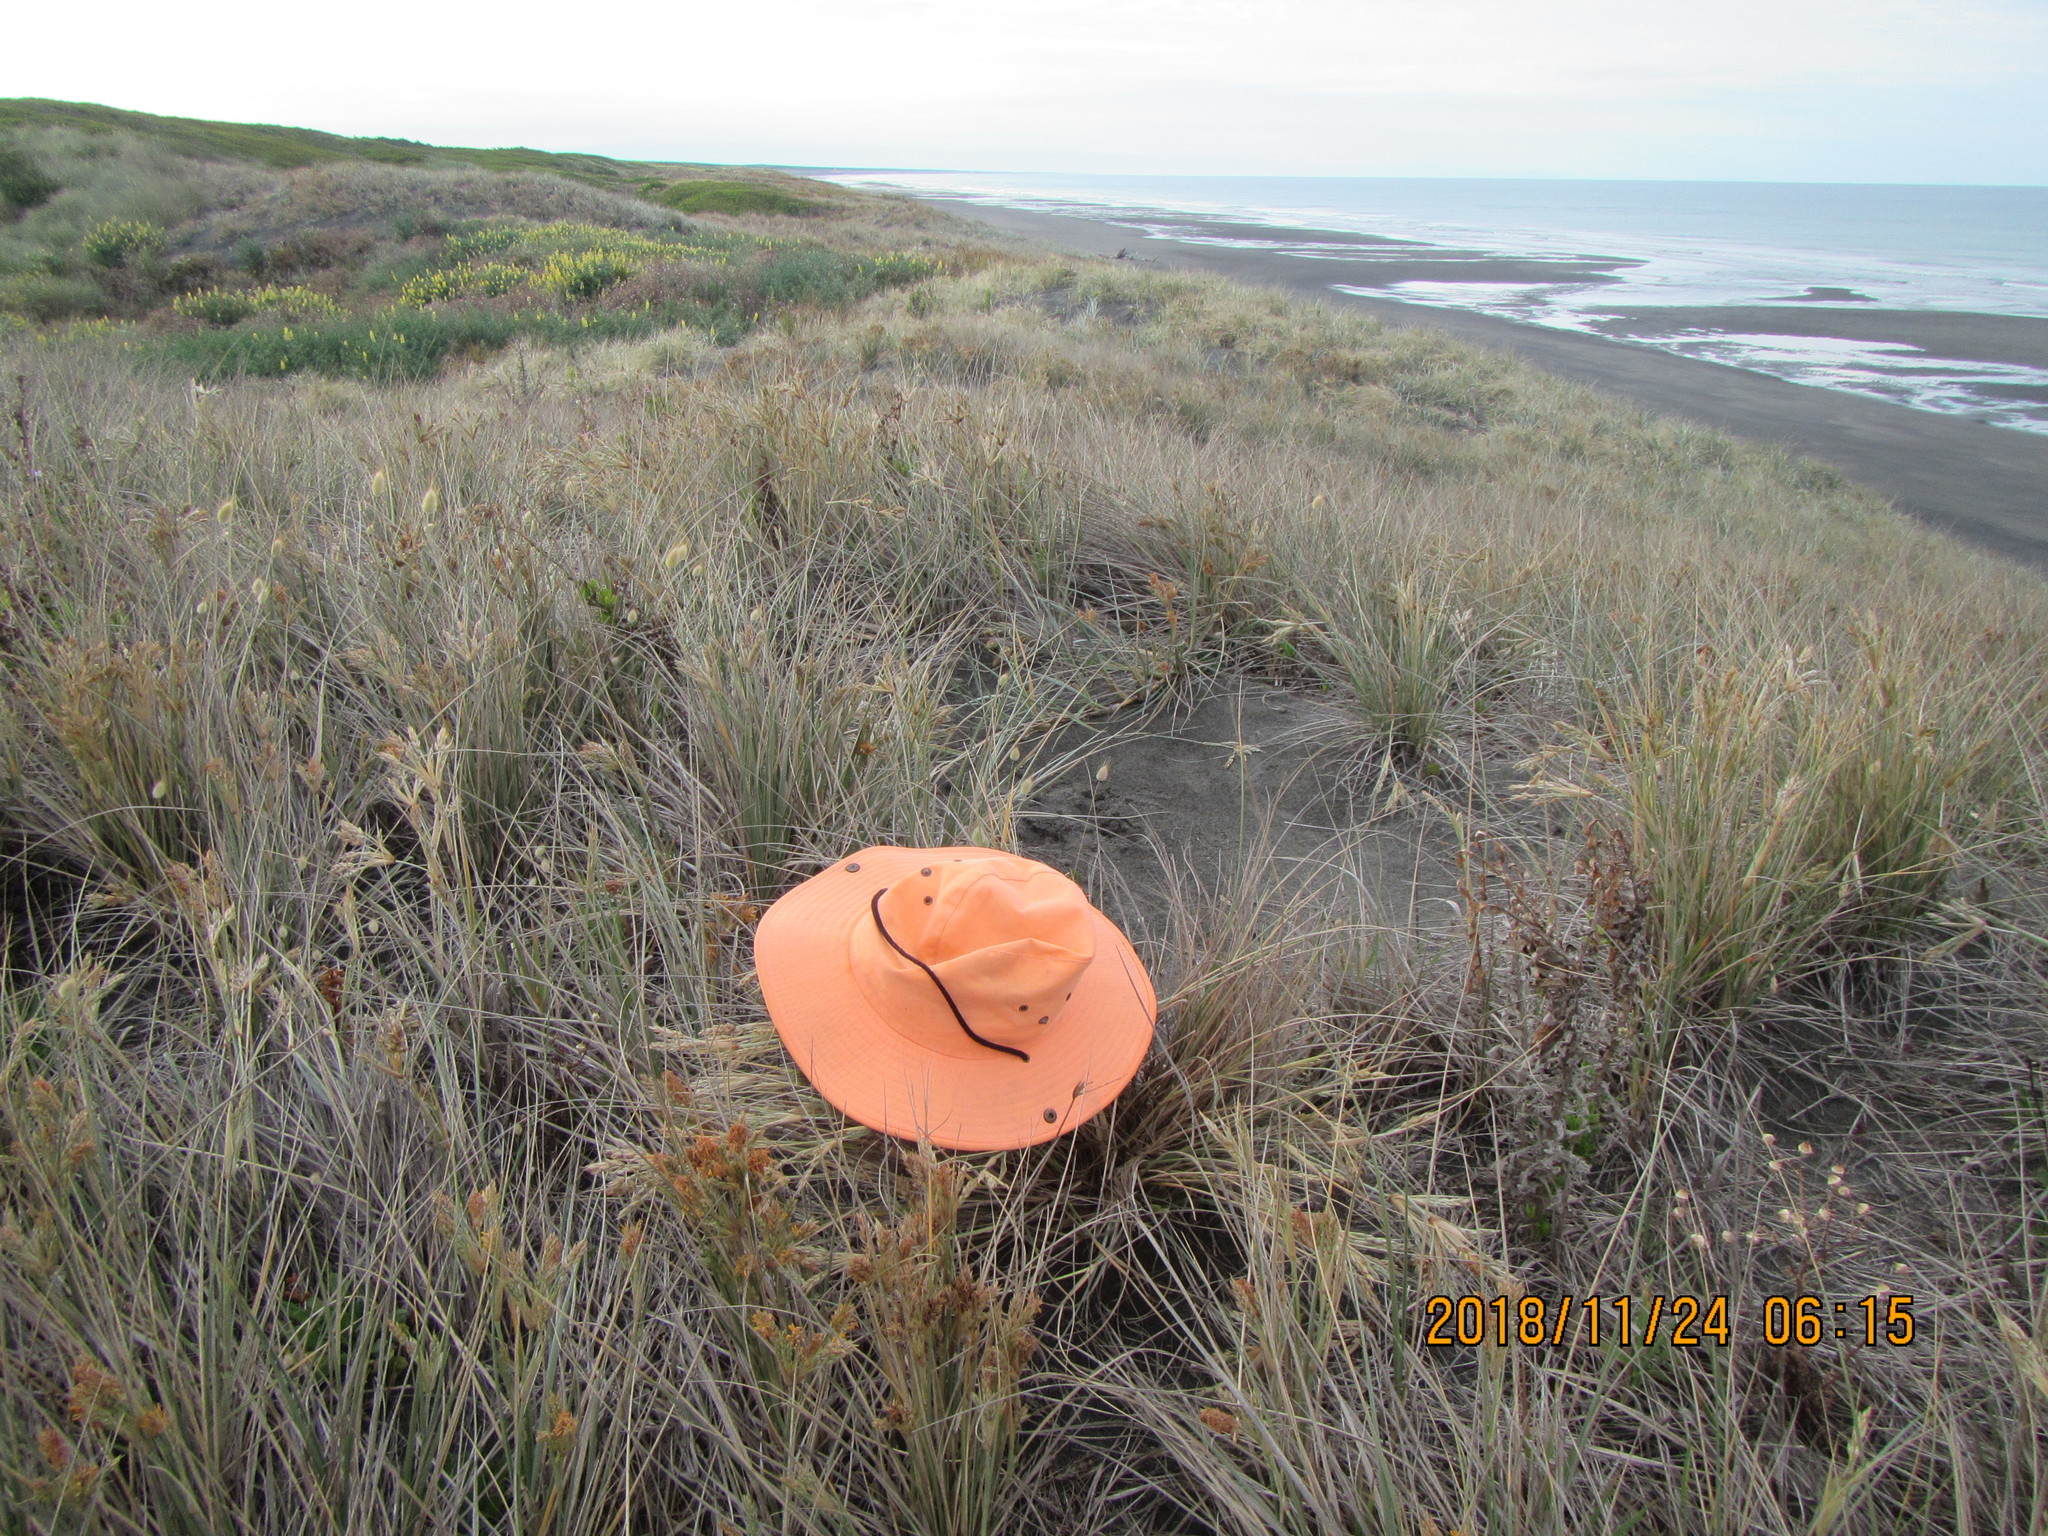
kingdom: Animalia
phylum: Arthropoda
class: Arachnida
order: Araneae
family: Thomisidae
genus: Sidymella
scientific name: Sidymella trapezia
